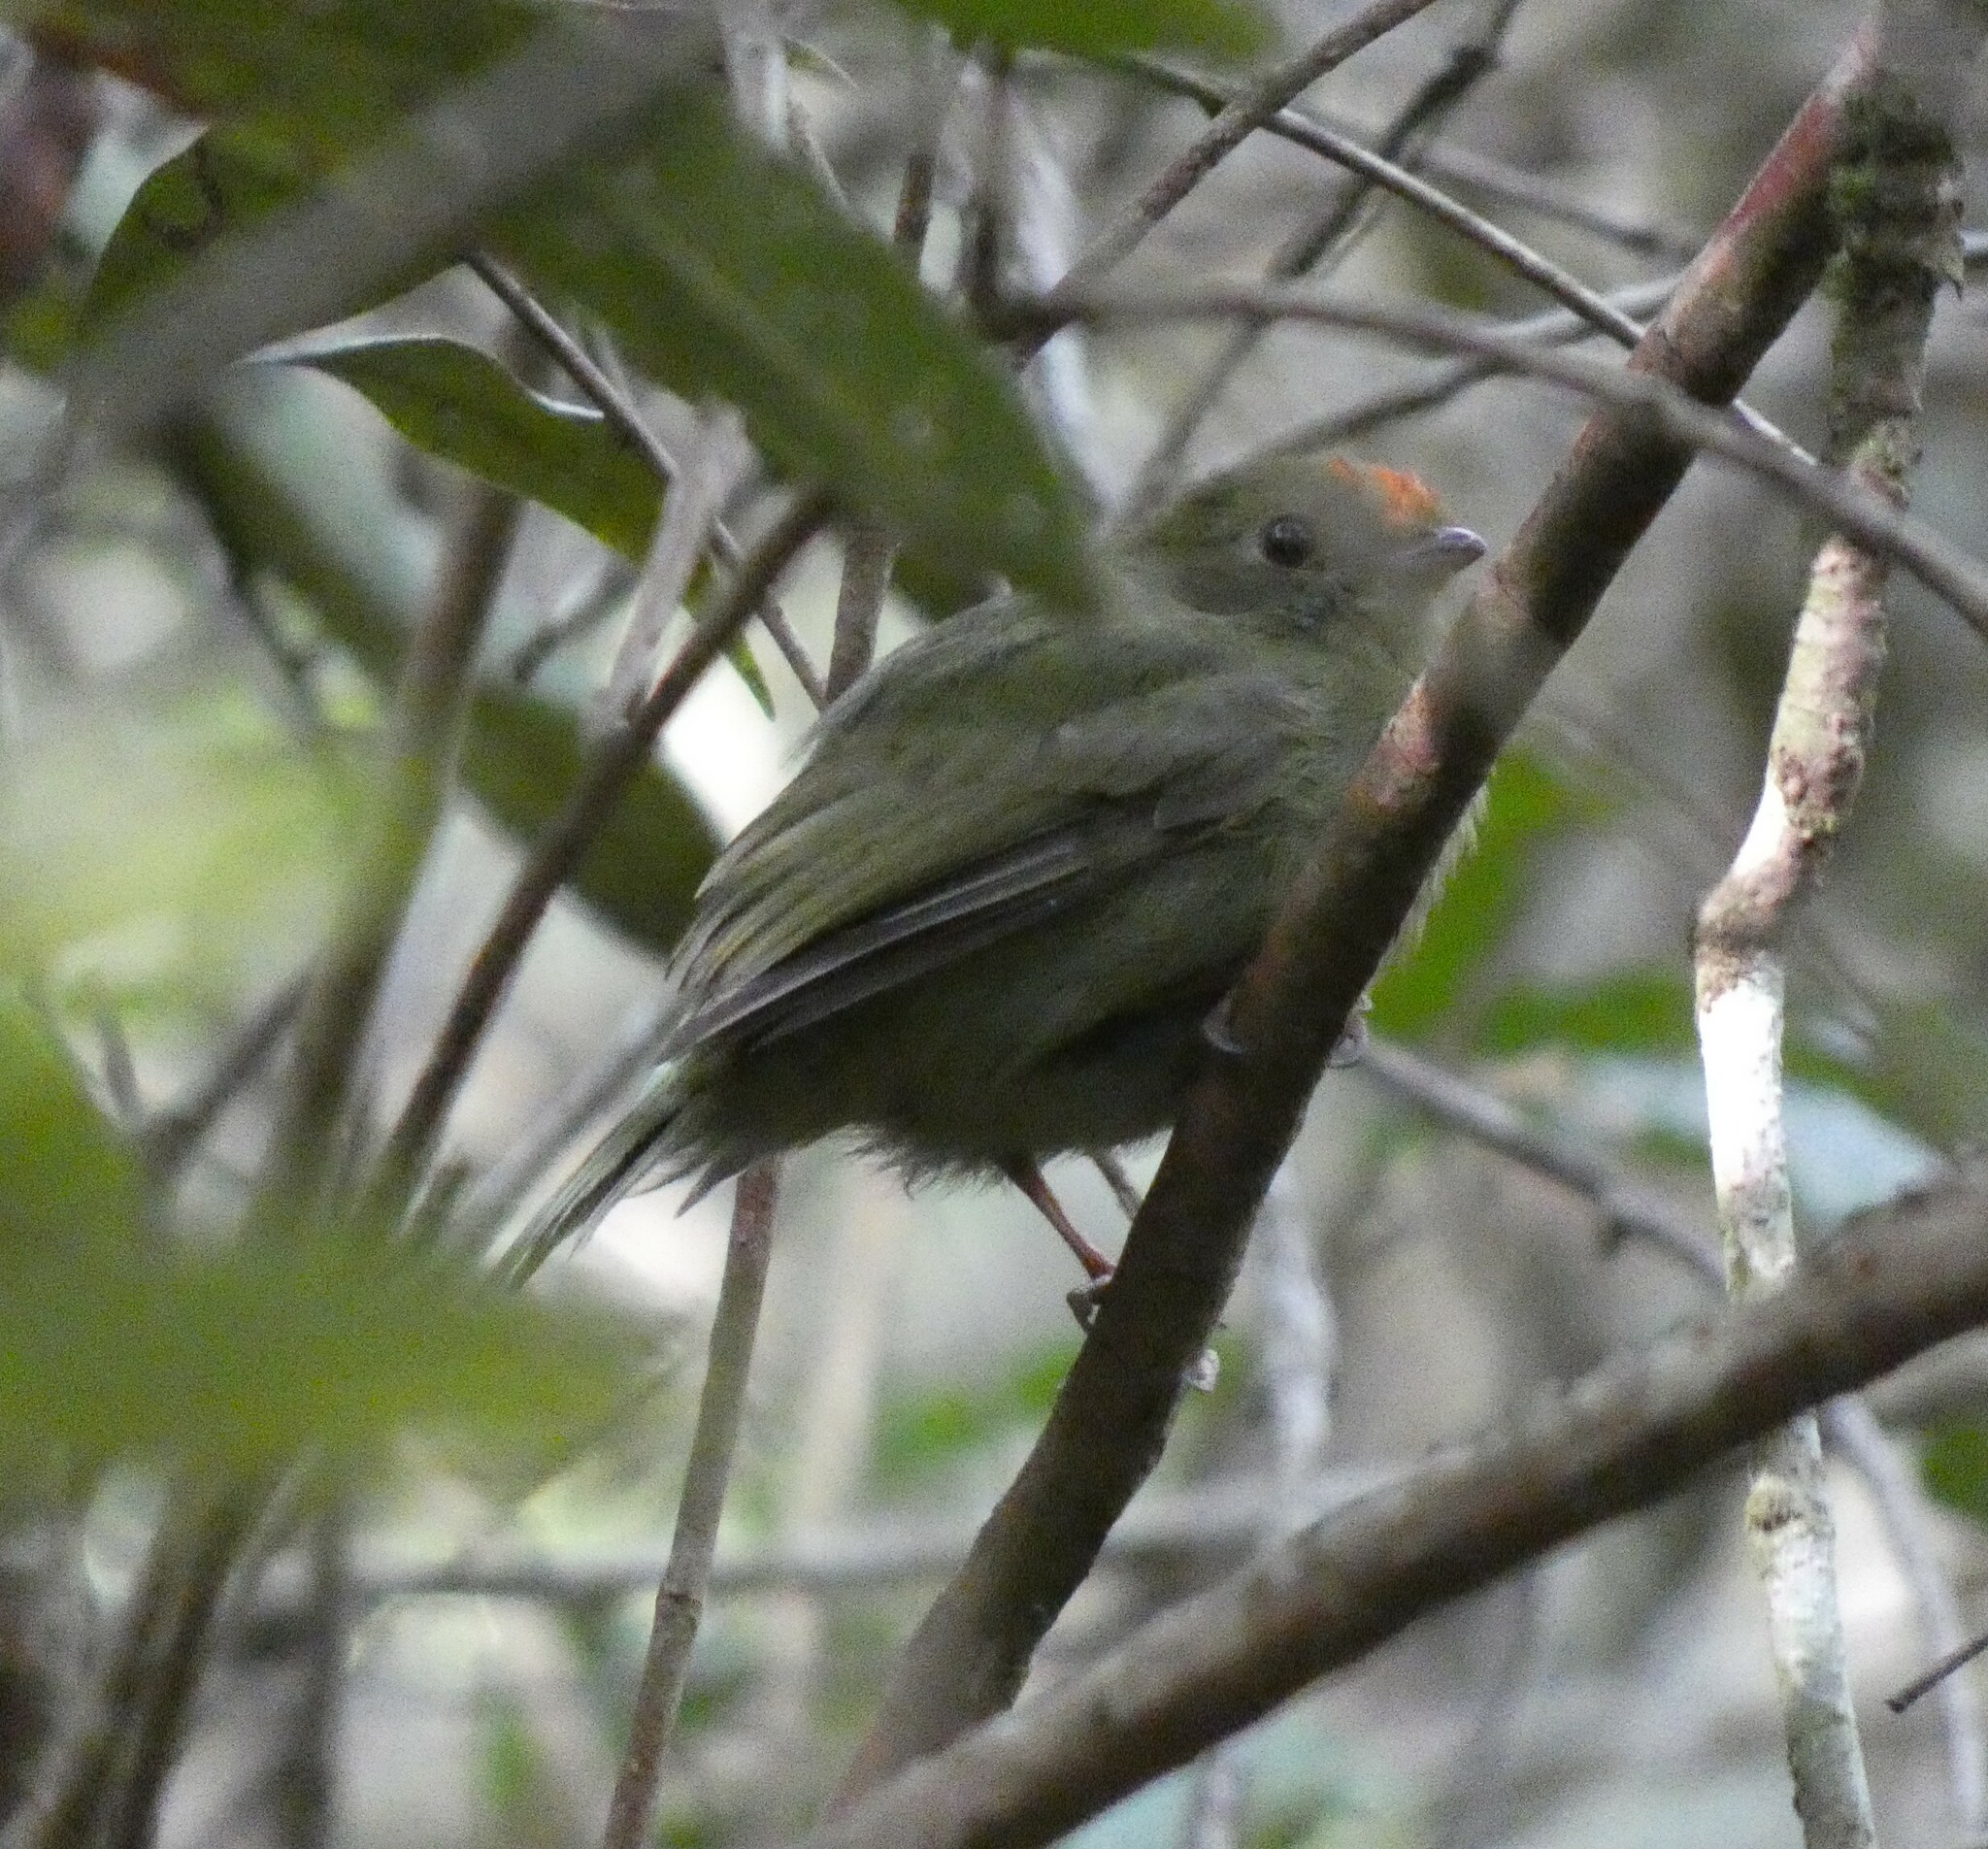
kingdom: Animalia
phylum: Chordata
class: Aves
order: Passeriformes
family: Pipridae
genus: Chiroxiphia
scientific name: Chiroxiphia caudata
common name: Blue manakin
